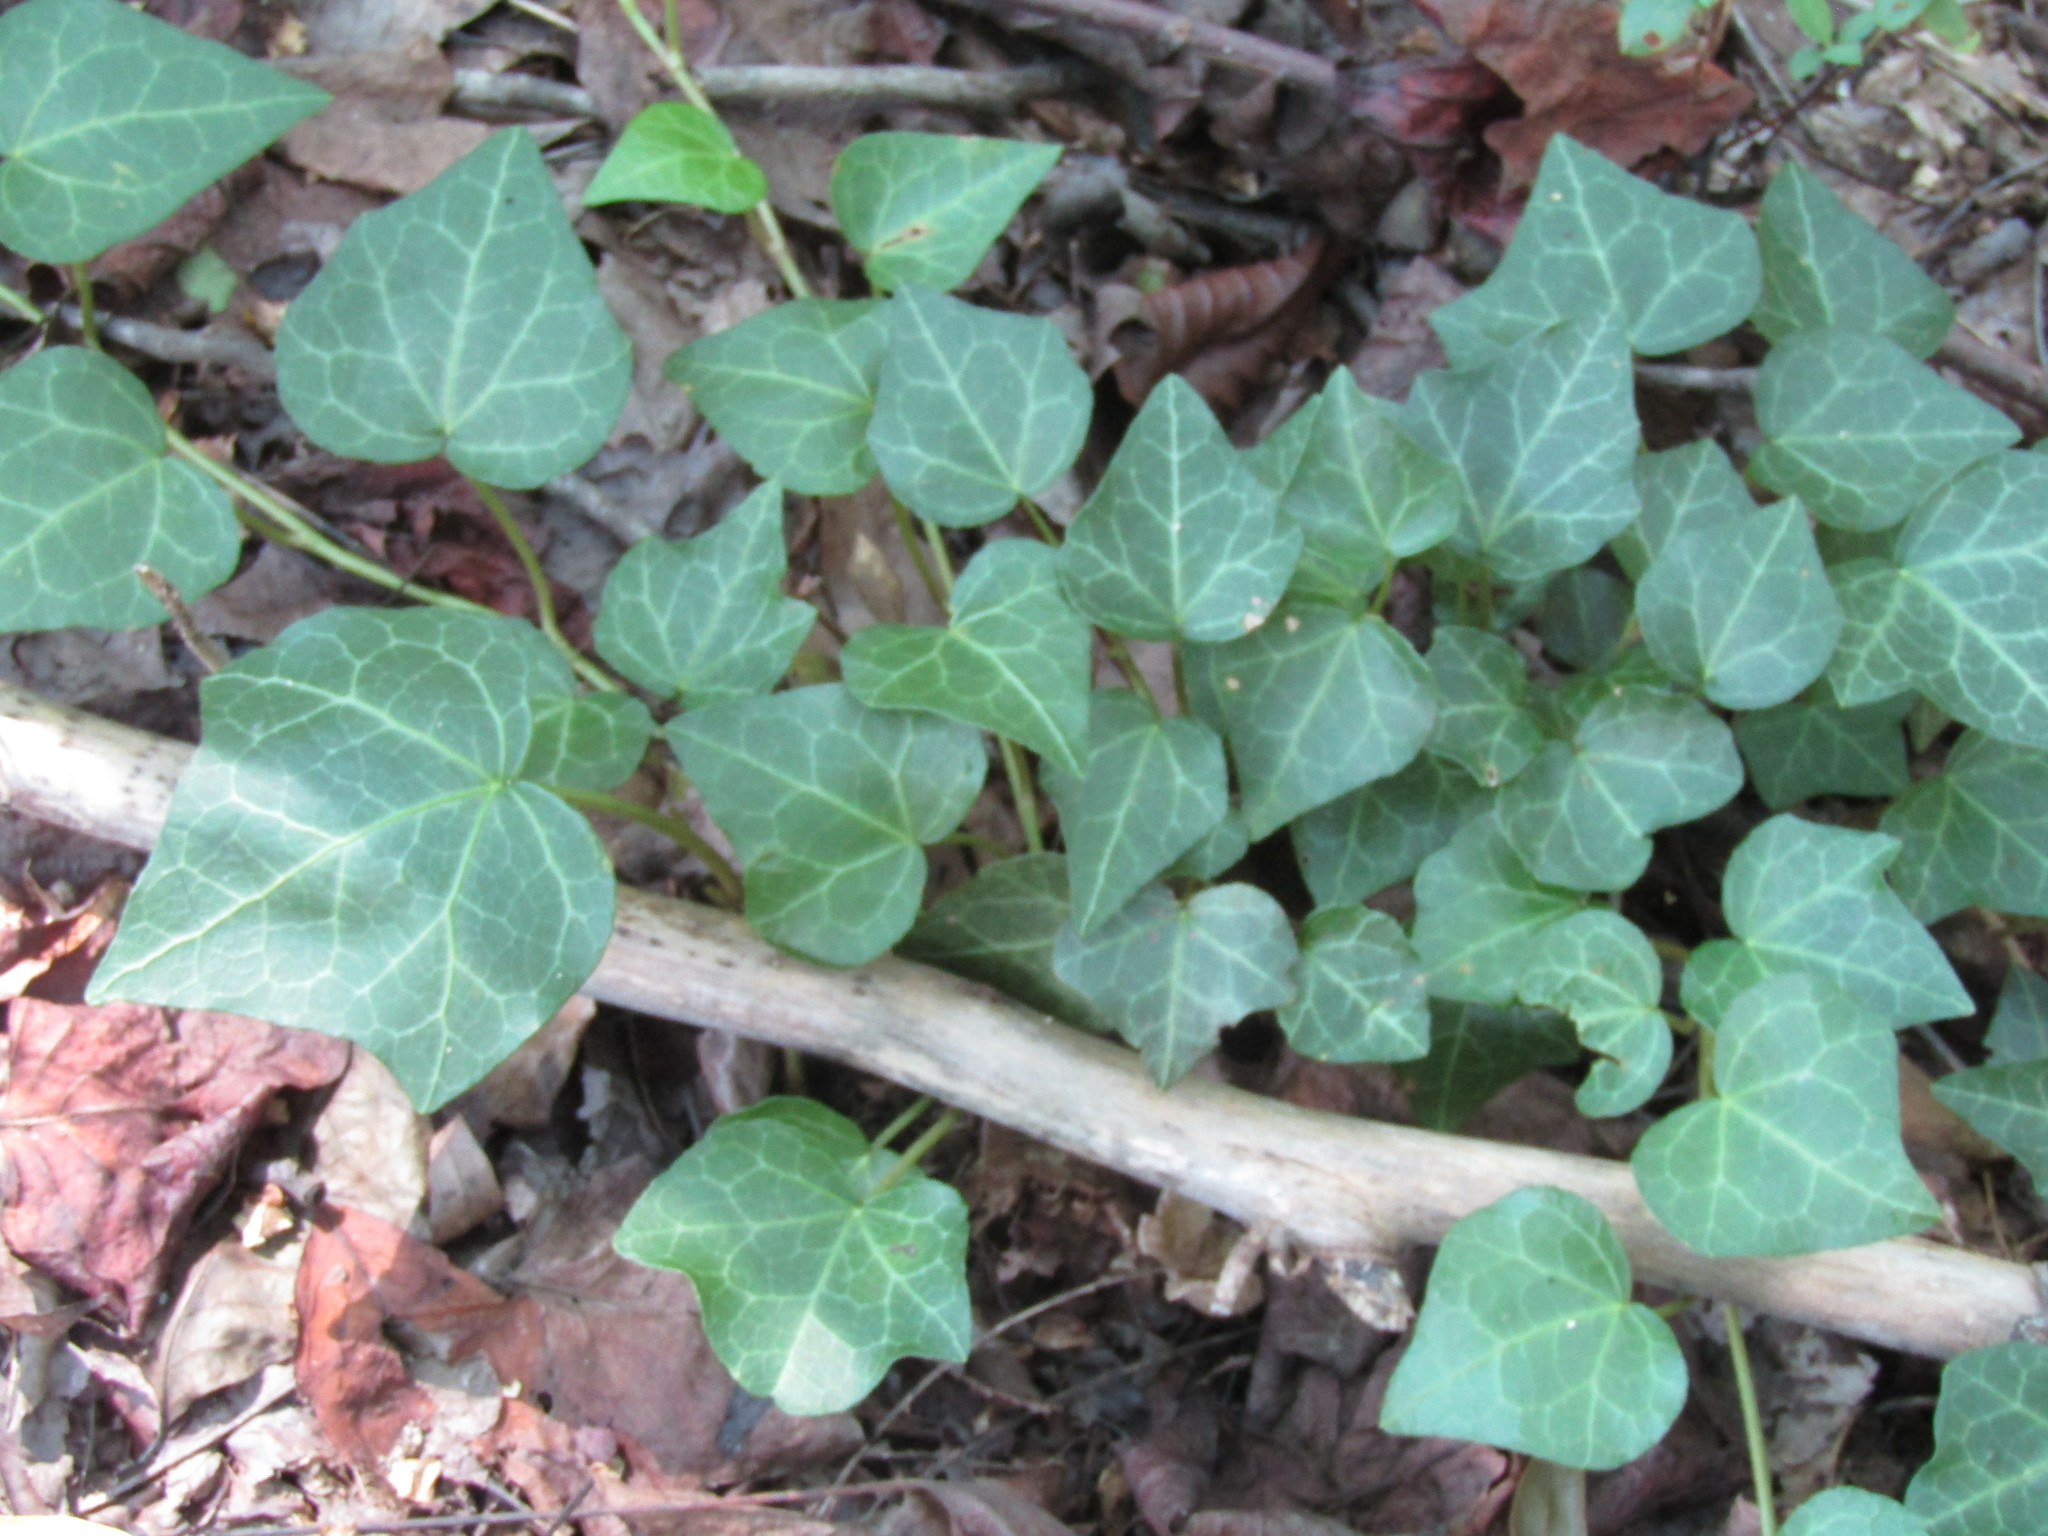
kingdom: Plantae
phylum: Tracheophyta
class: Magnoliopsida
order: Apiales
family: Araliaceae
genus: Hedera
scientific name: Hedera helix
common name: Ivy
